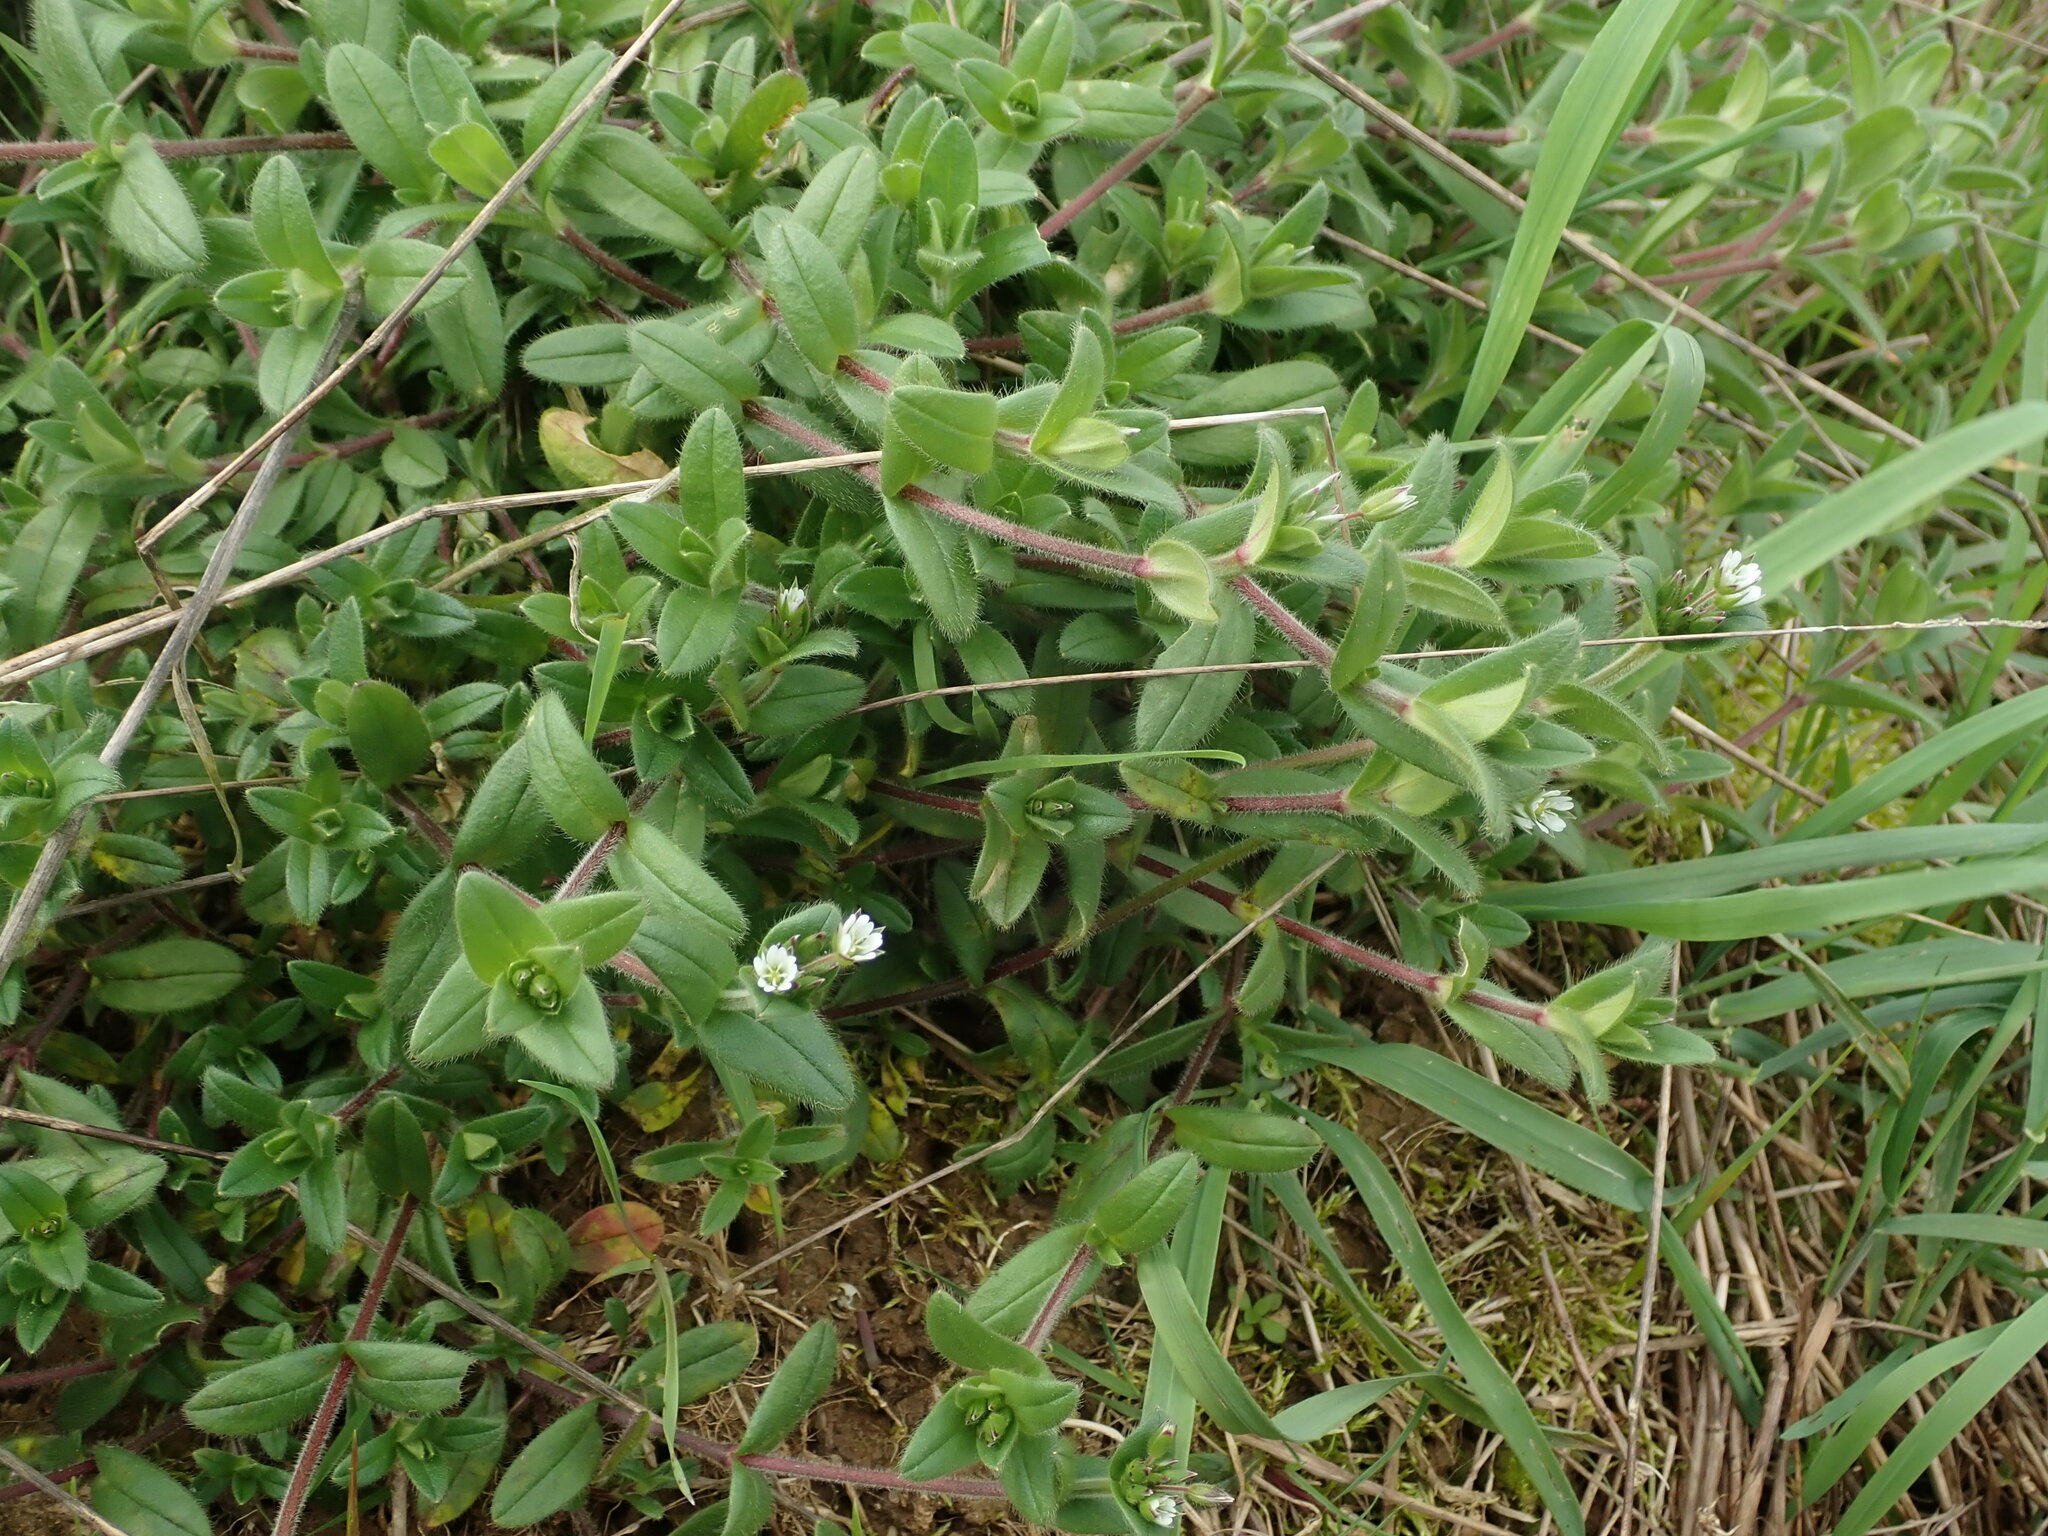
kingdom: Plantae
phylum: Tracheophyta
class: Magnoliopsida
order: Caryophyllales
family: Caryophyllaceae
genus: Cerastium
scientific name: Cerastium fontanum
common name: Common mouse-ear
